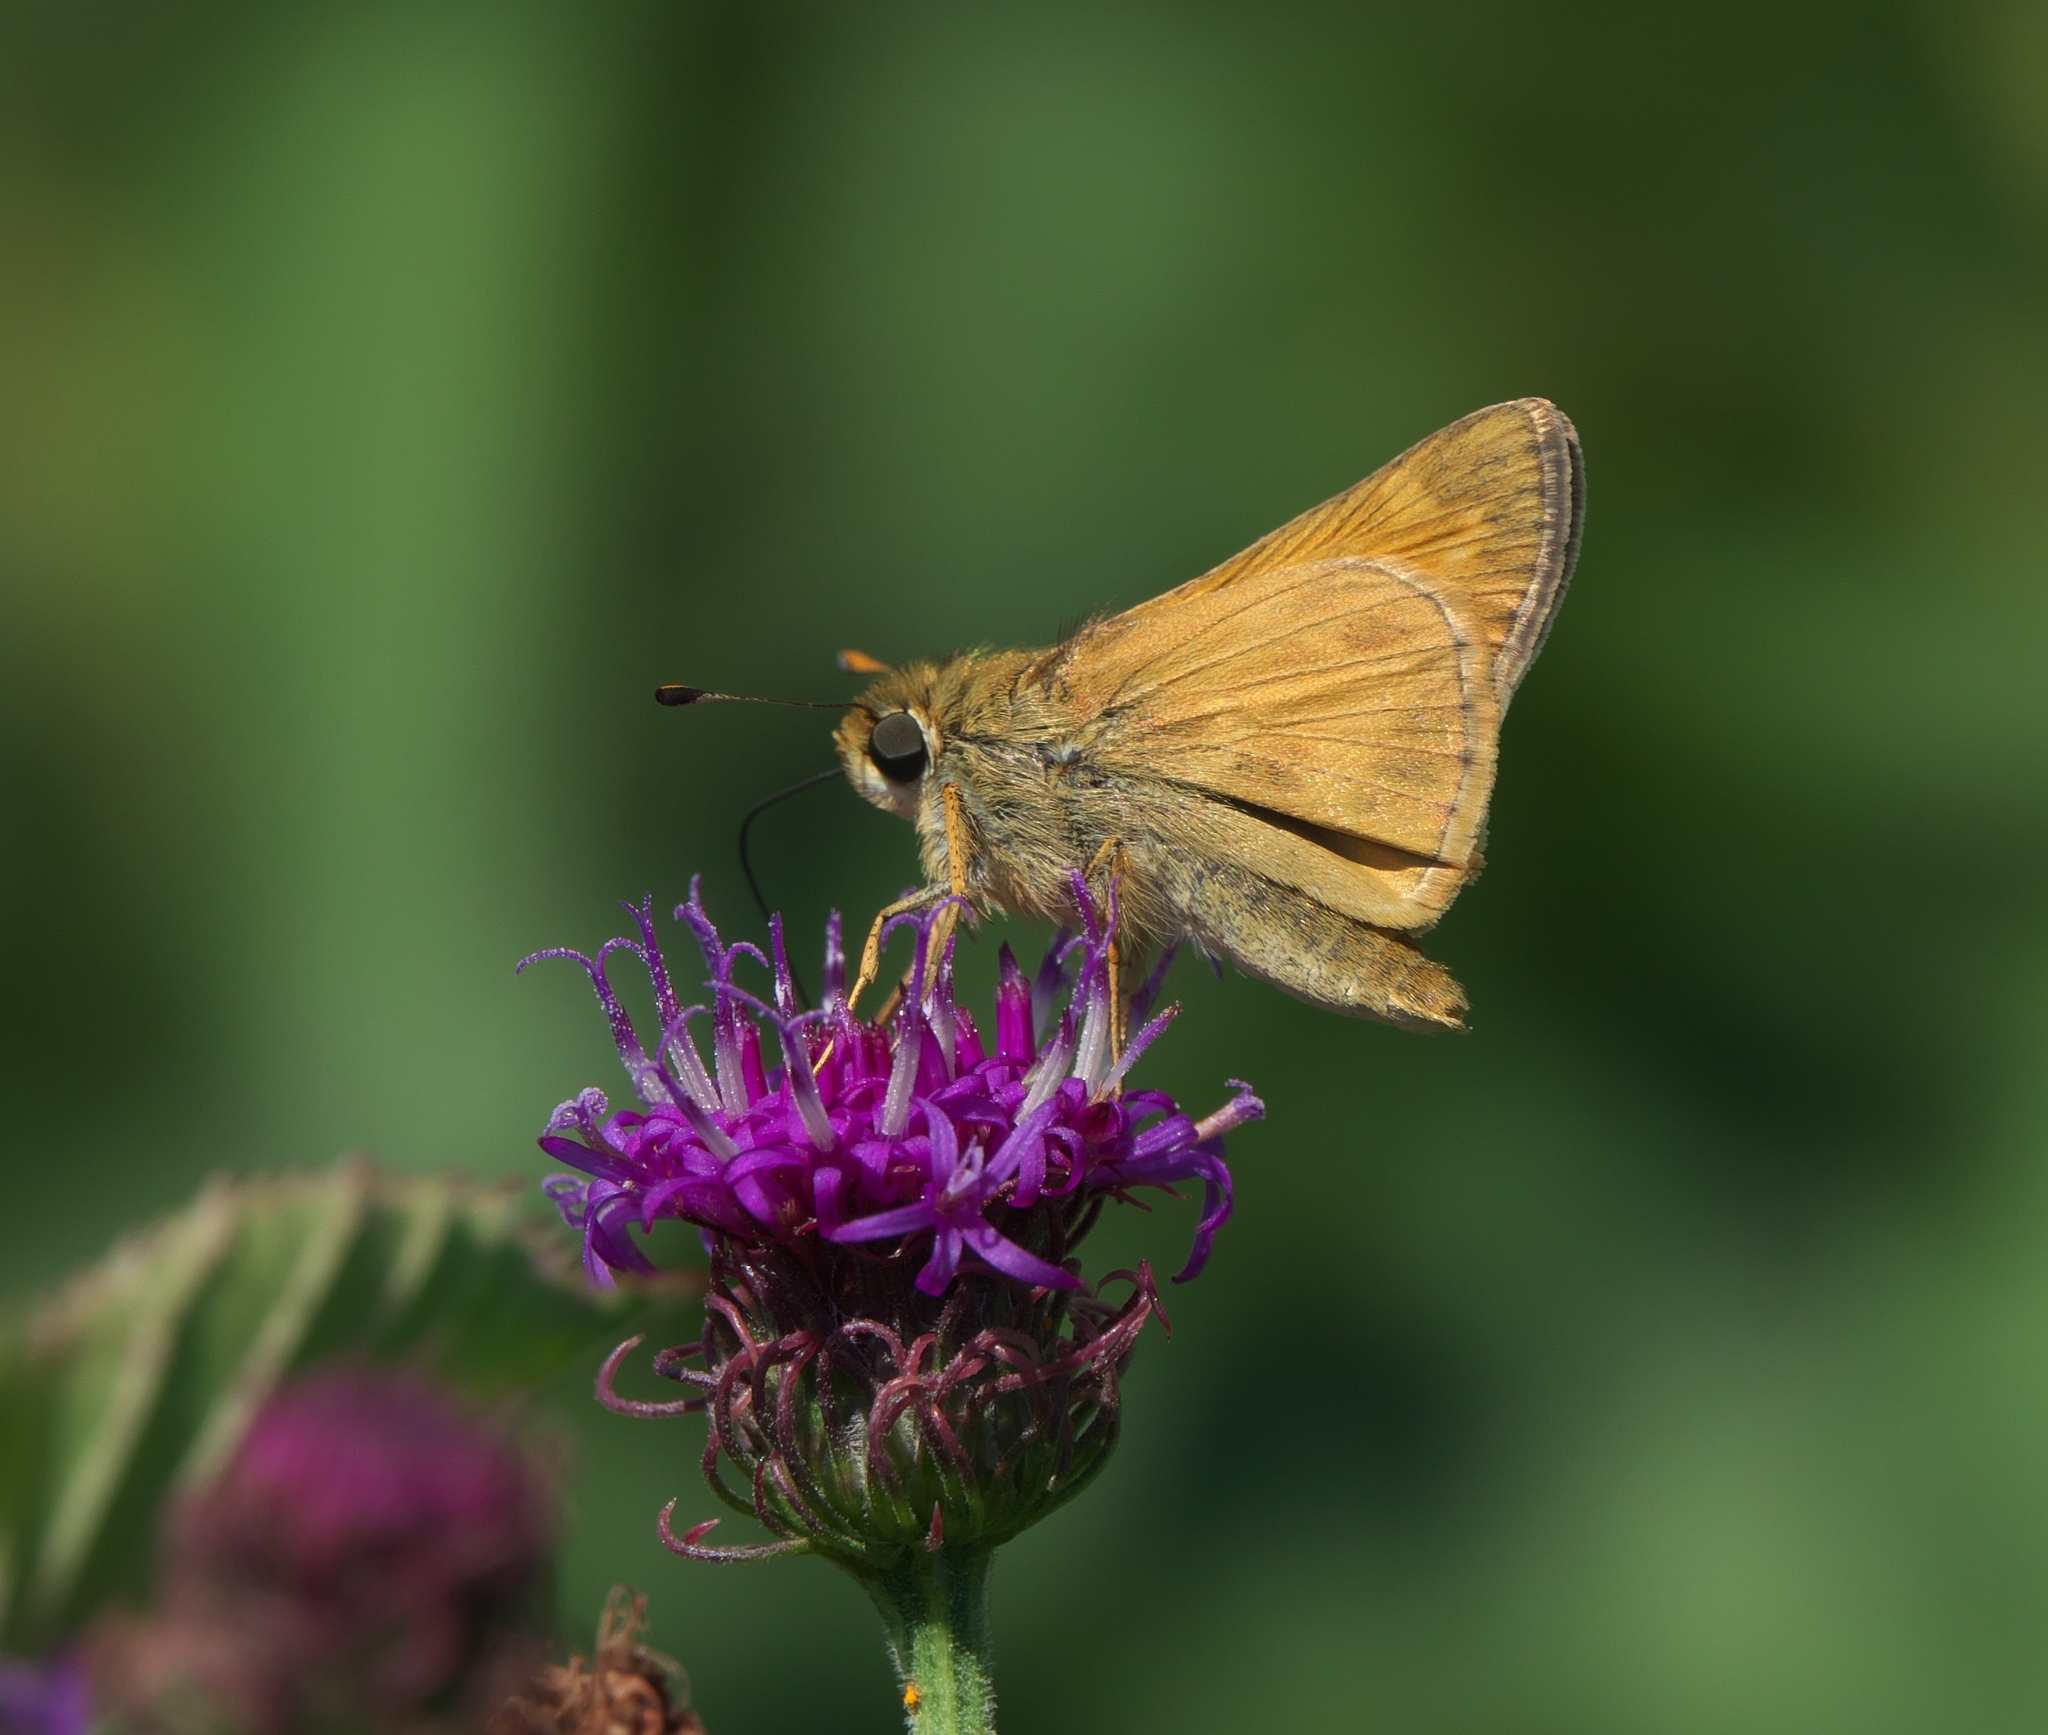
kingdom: Animalia
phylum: Arthropoda
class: Insecta
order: Lepidoptera
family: Hesperiidae
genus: Atalopedes
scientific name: Atalopedes
